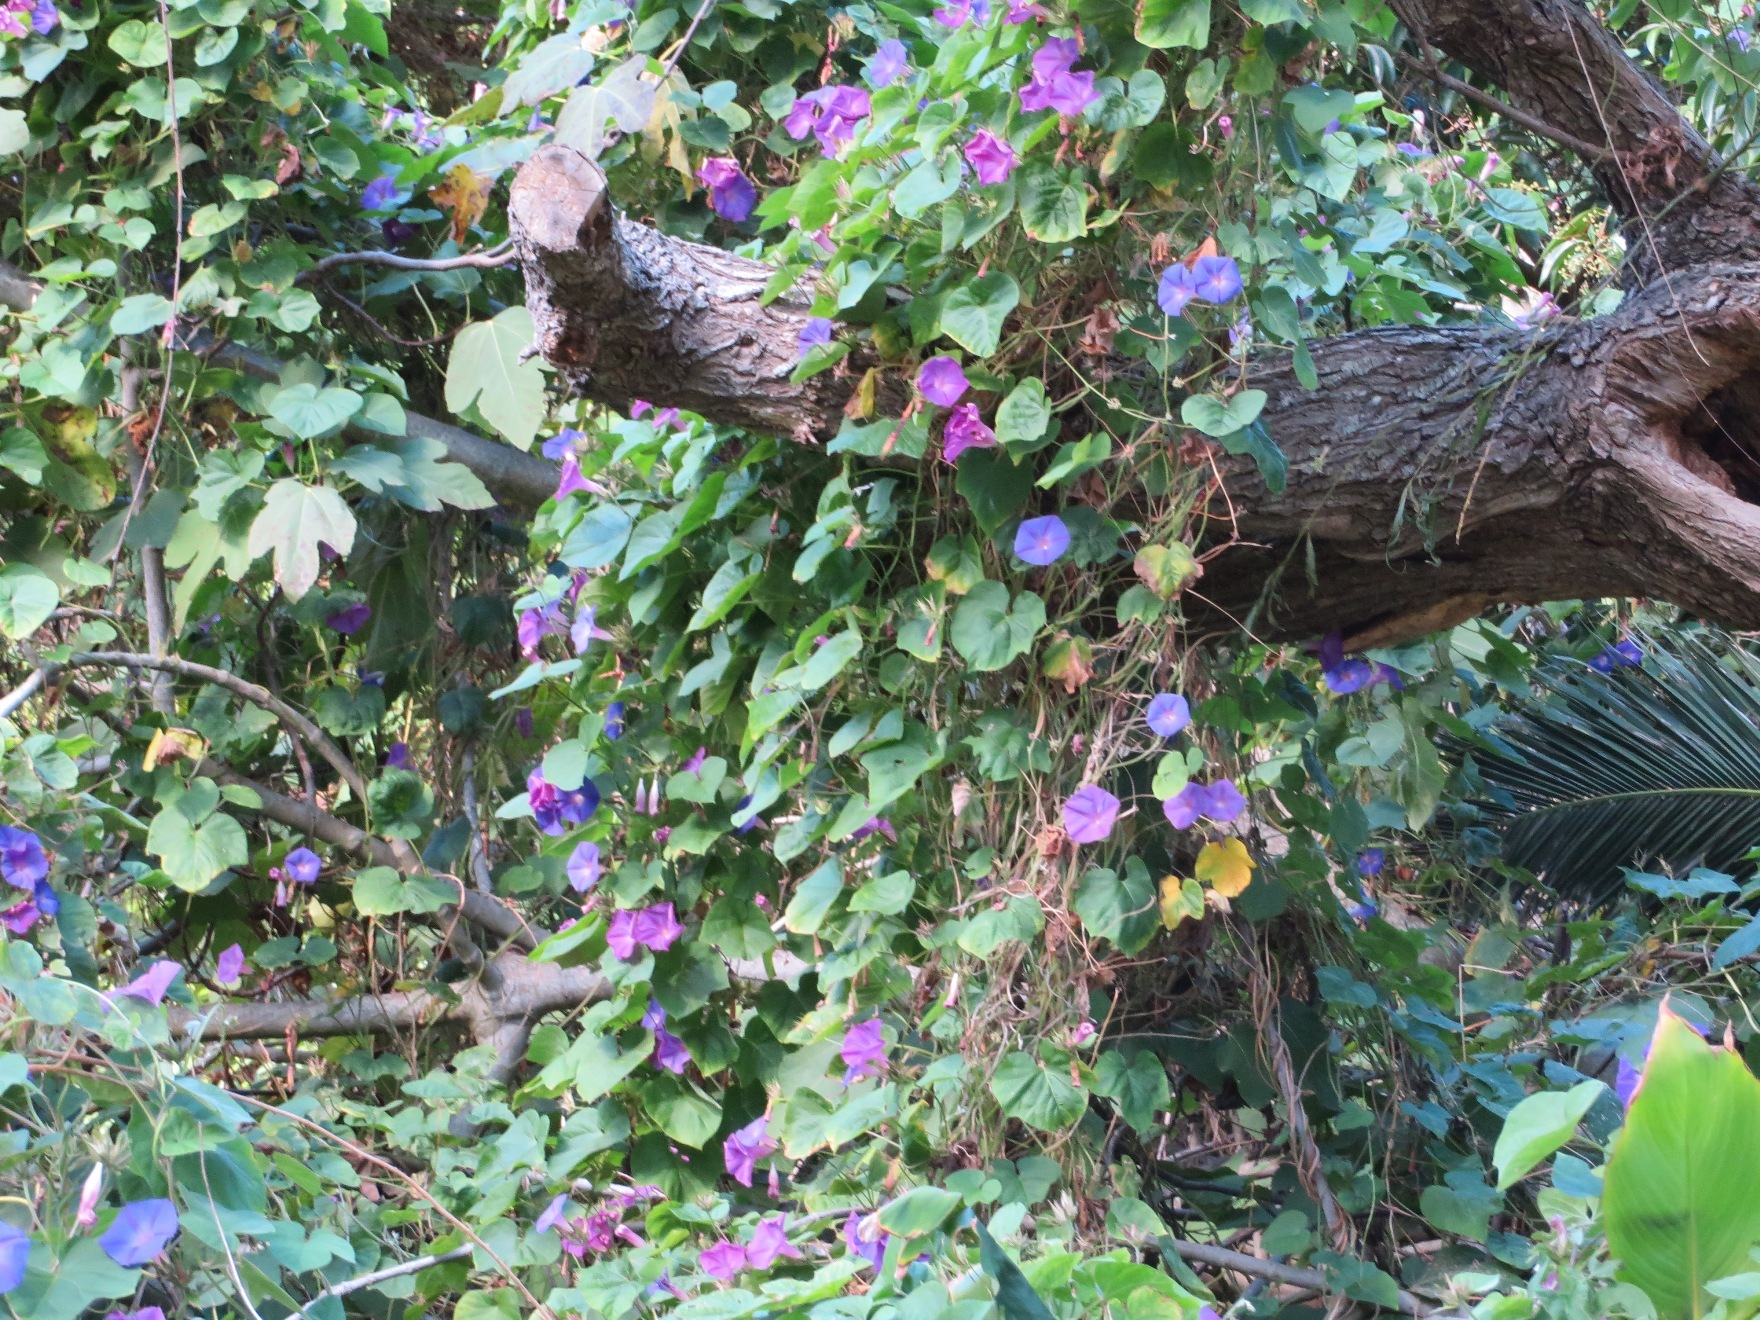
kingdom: Plantae
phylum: Tracheophyta
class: Magnoliopsida
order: Solanales
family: Convolvulaceae
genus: Ipomoea
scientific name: Ipomoea indica
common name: Blue dawnflower
